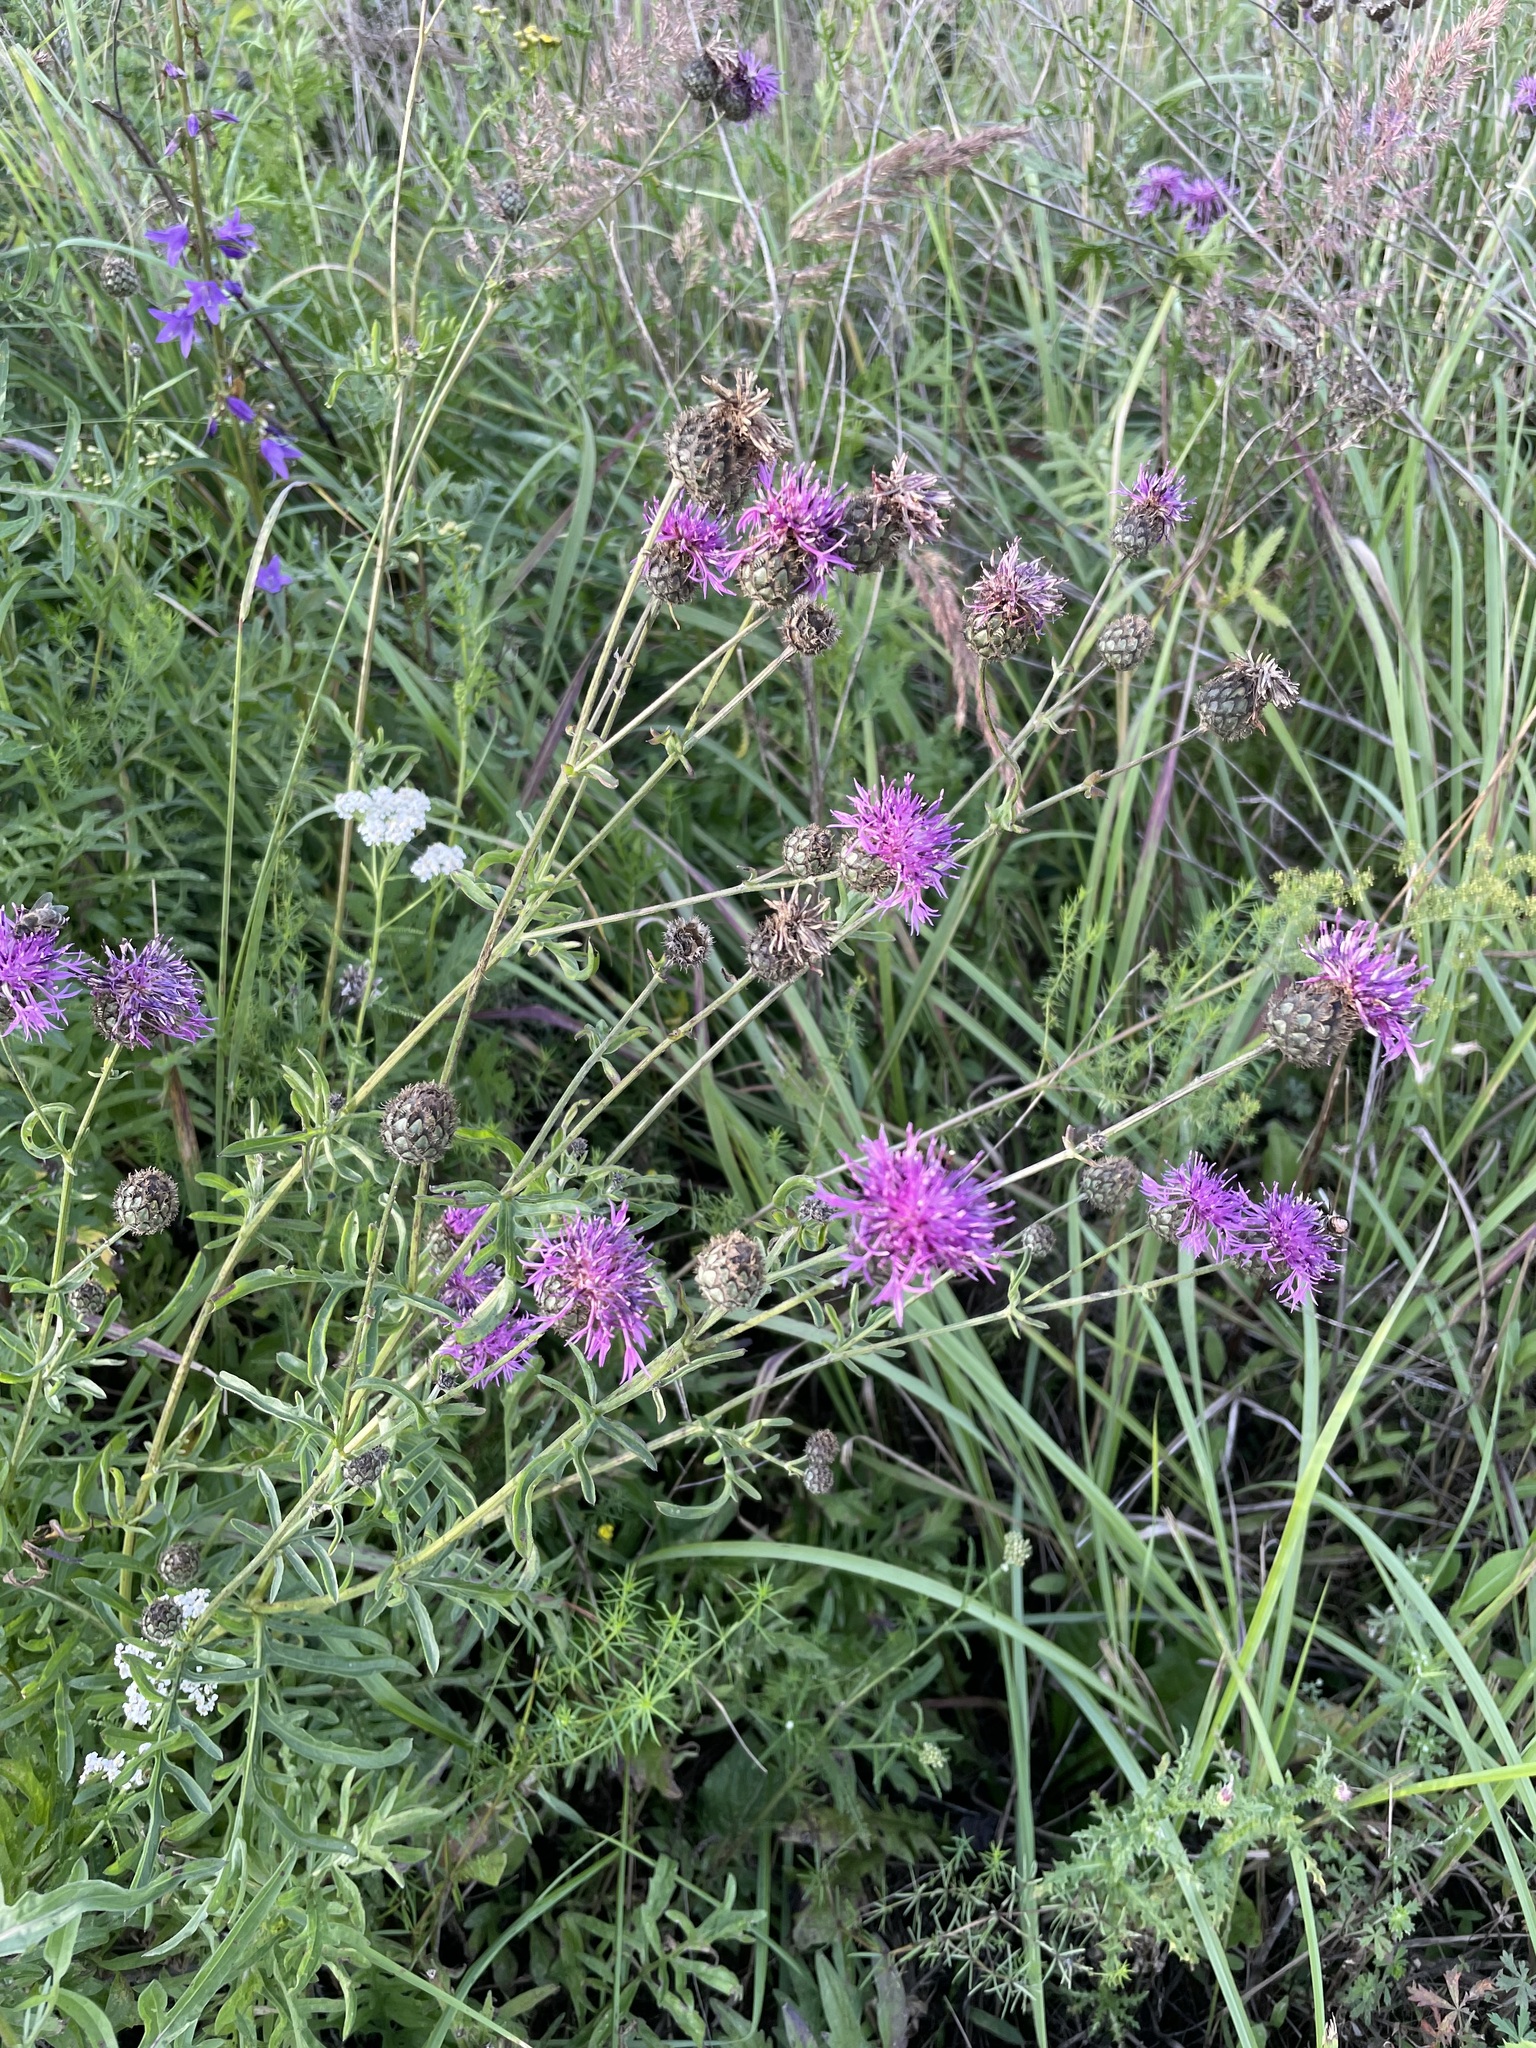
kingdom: Plantae
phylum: Tracheophyta
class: Magnoliopsida
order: Asterales
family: Asteraceae
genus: Centaurea
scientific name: Centaurea scabiosa
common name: Greater knapweed
